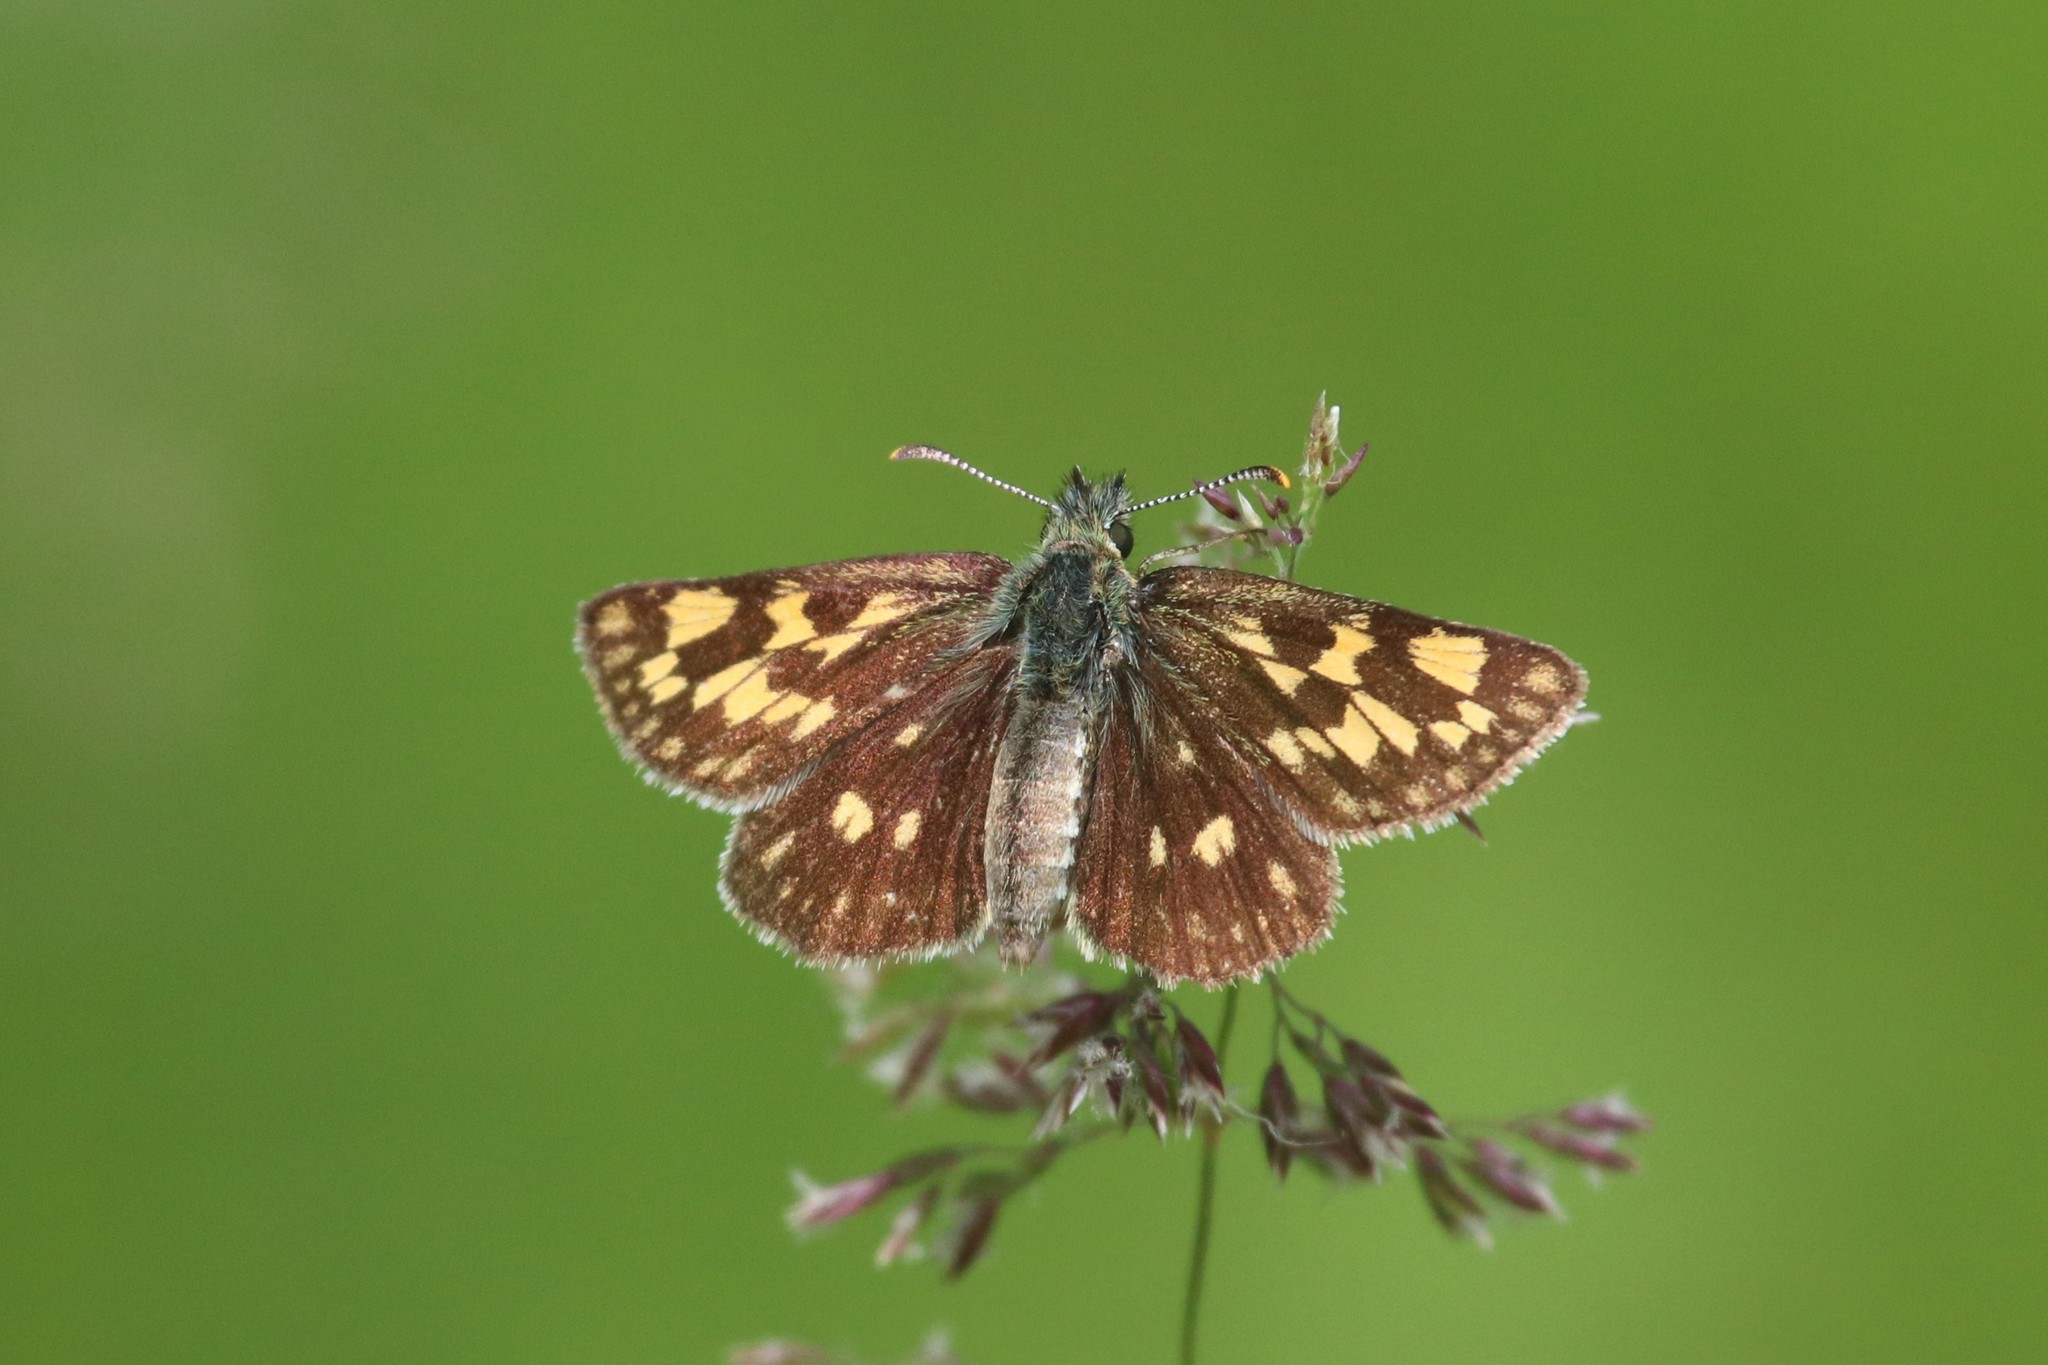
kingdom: Animalia
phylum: Arthropoda
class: Insecta
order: Lepidoptera
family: Hesperiidae
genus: Carterocephalus
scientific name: Carterocephalus palaemon
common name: Chequered skipper
